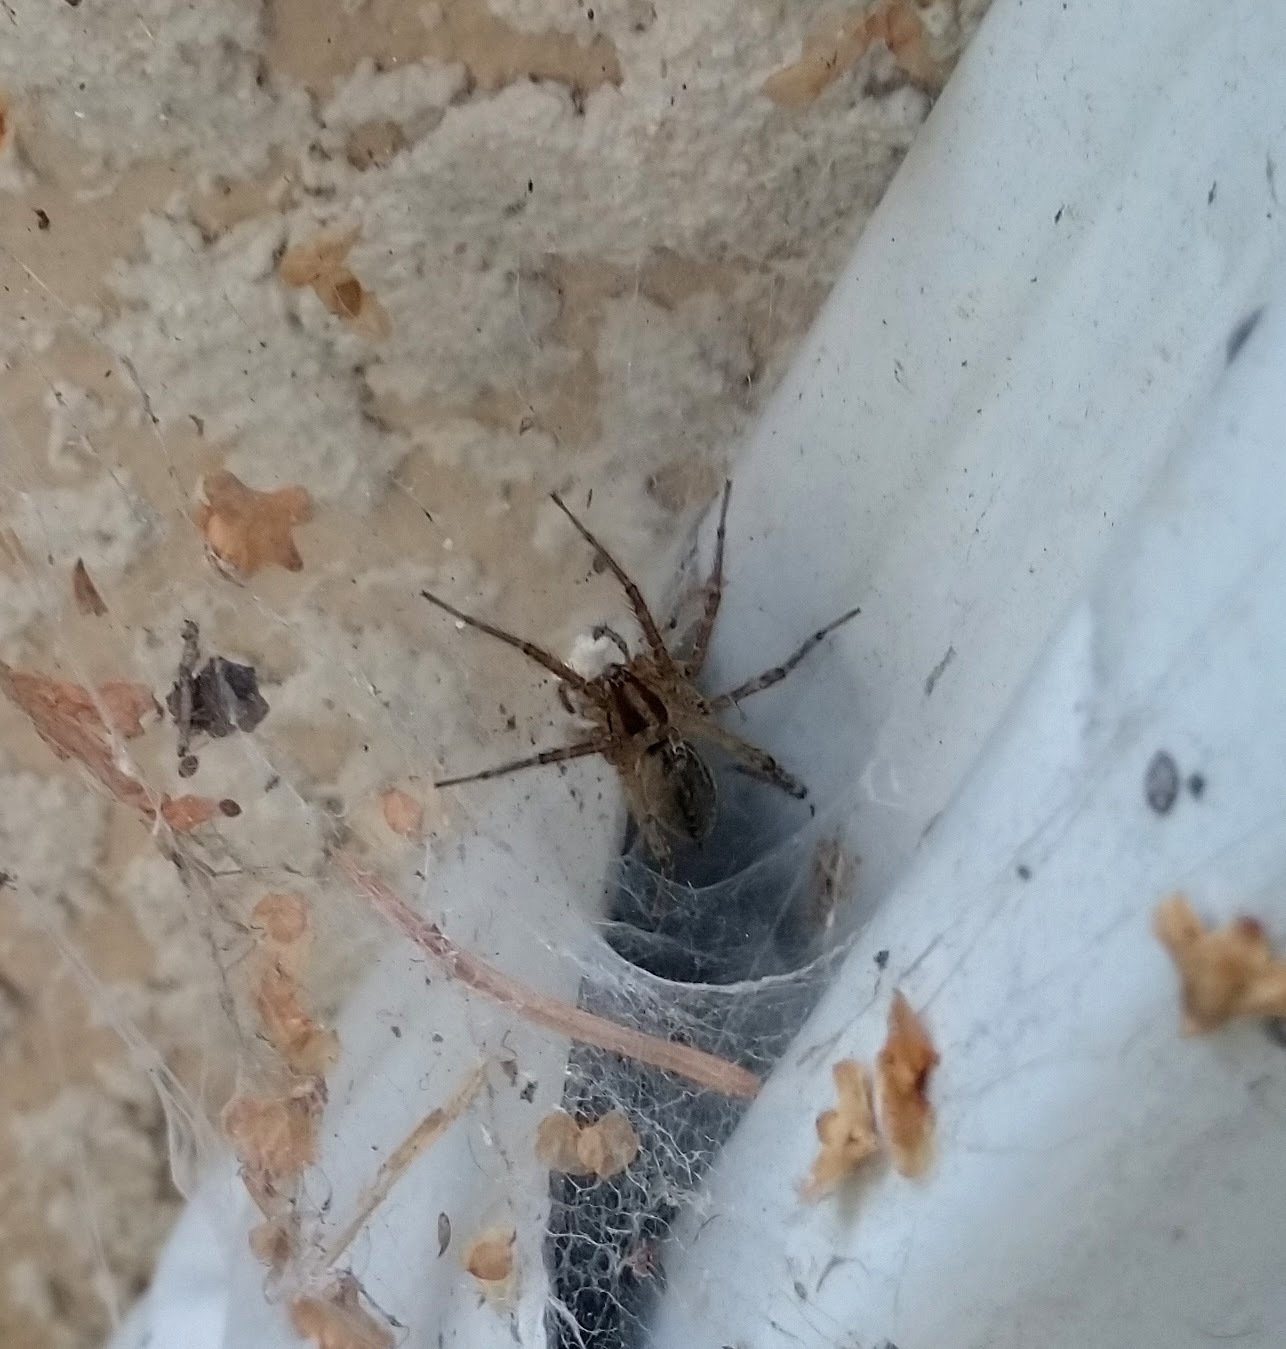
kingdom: Animalia
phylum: Arthropoda
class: Arachnida
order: Araneae
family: Agelenidae
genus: Agelenopsis
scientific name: Agelenopsis
